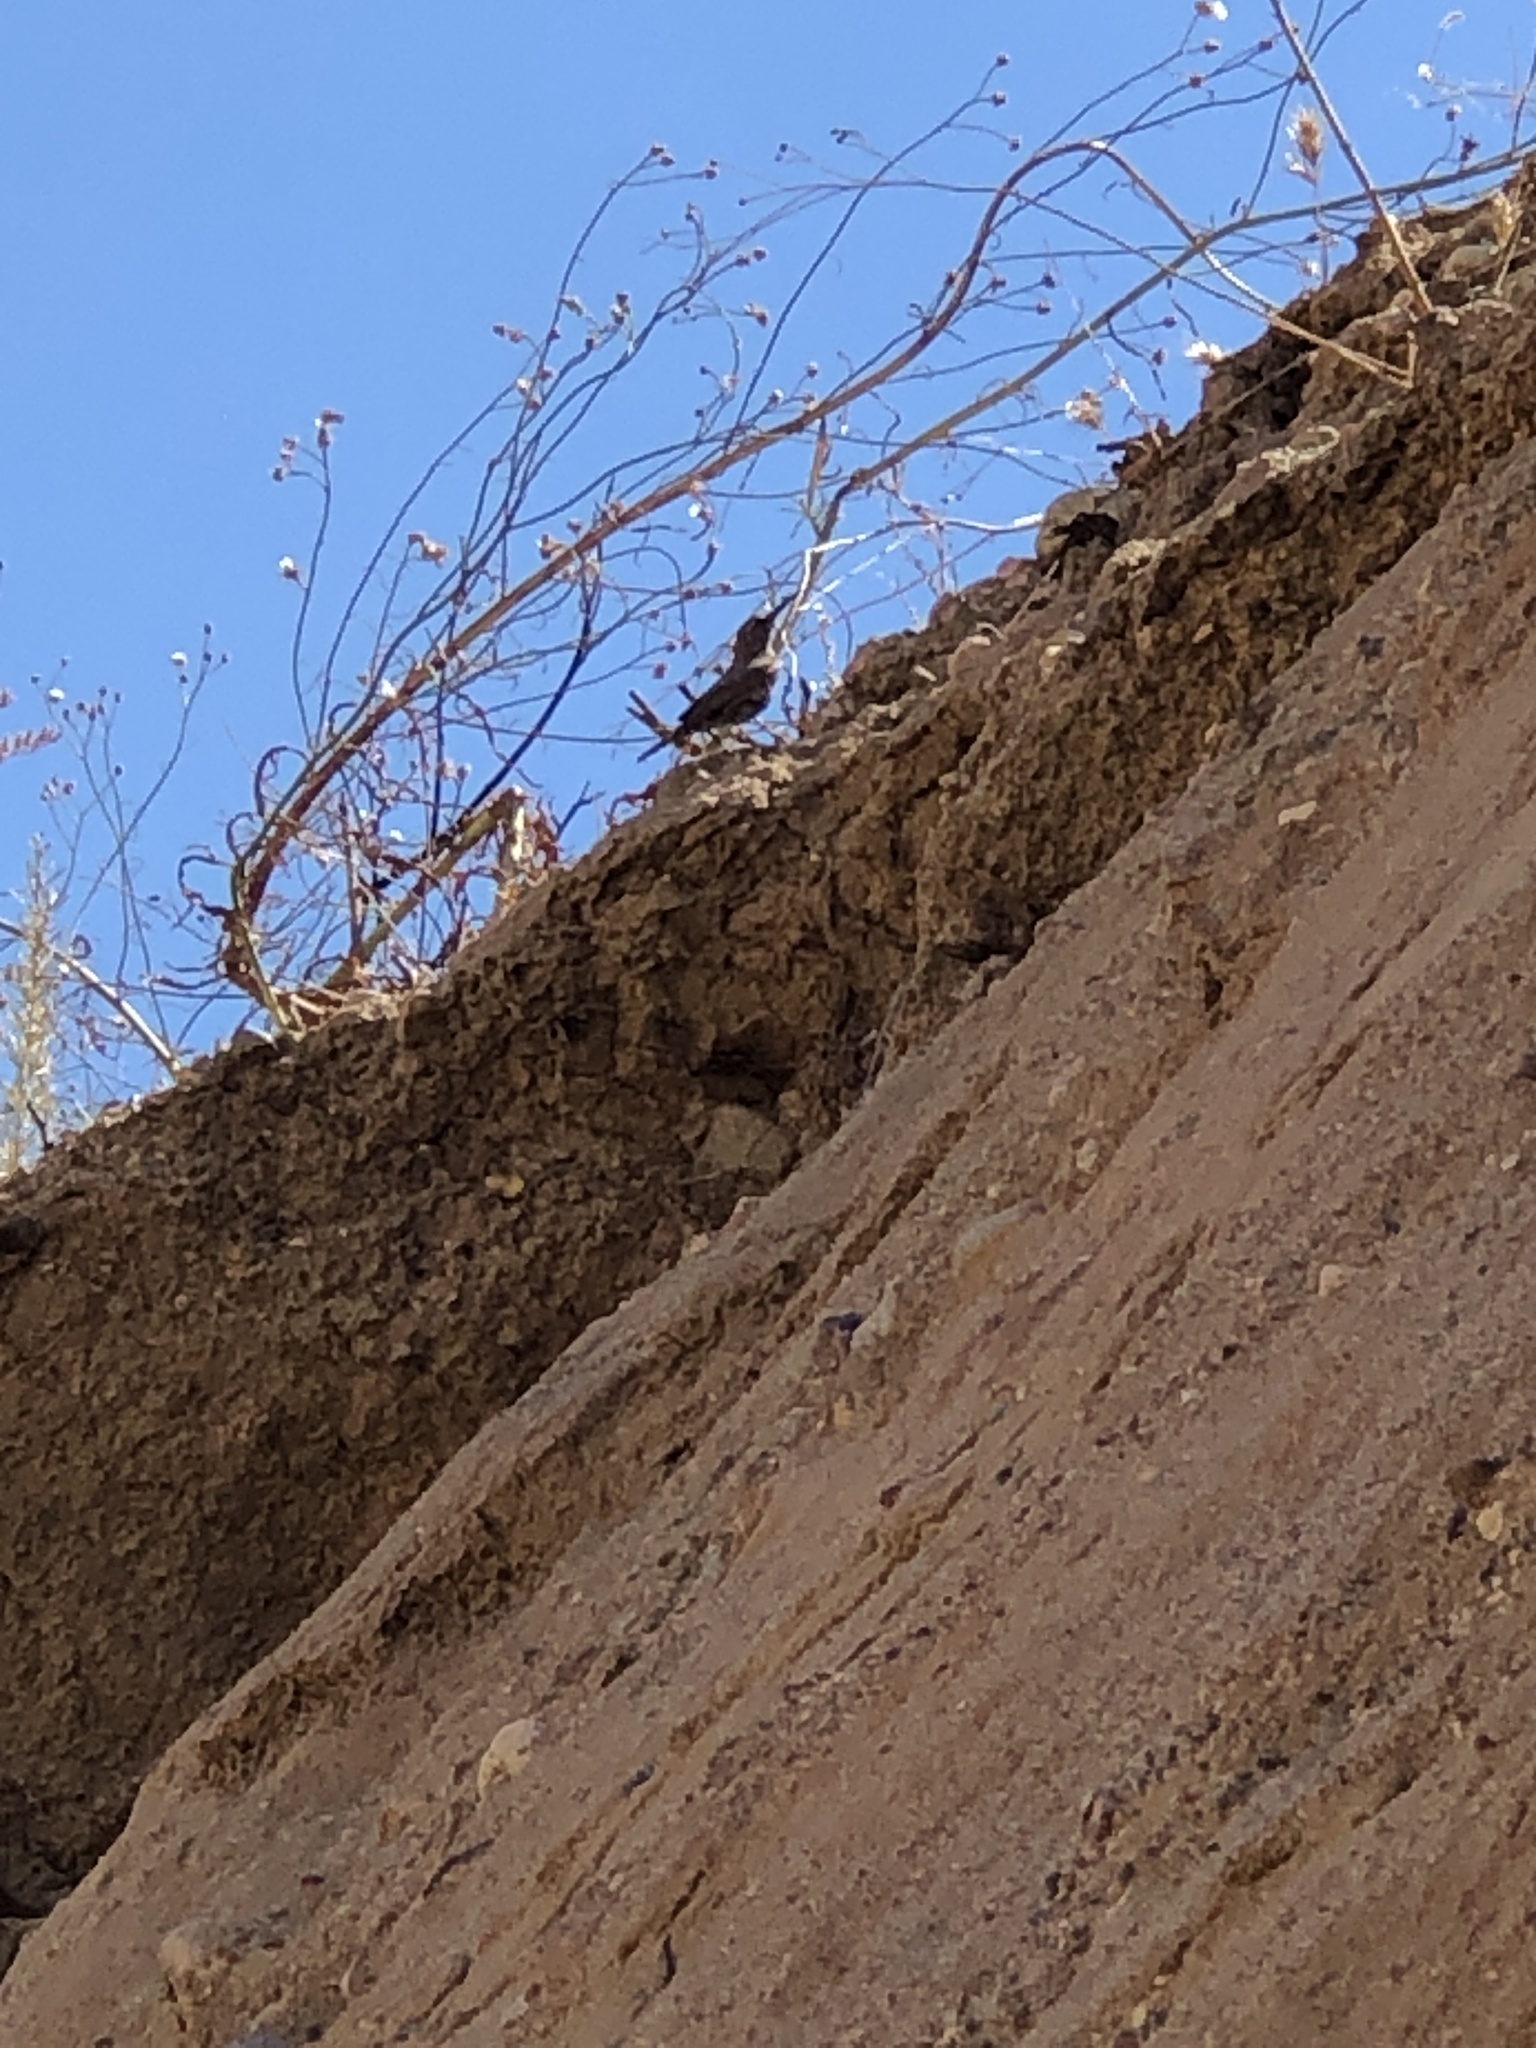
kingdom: Animalia
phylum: Chordata
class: Aves
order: Passeriformes
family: Troglodytidae
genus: Salpinctes
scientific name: Salpinctes obsoletus
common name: Rock wren
